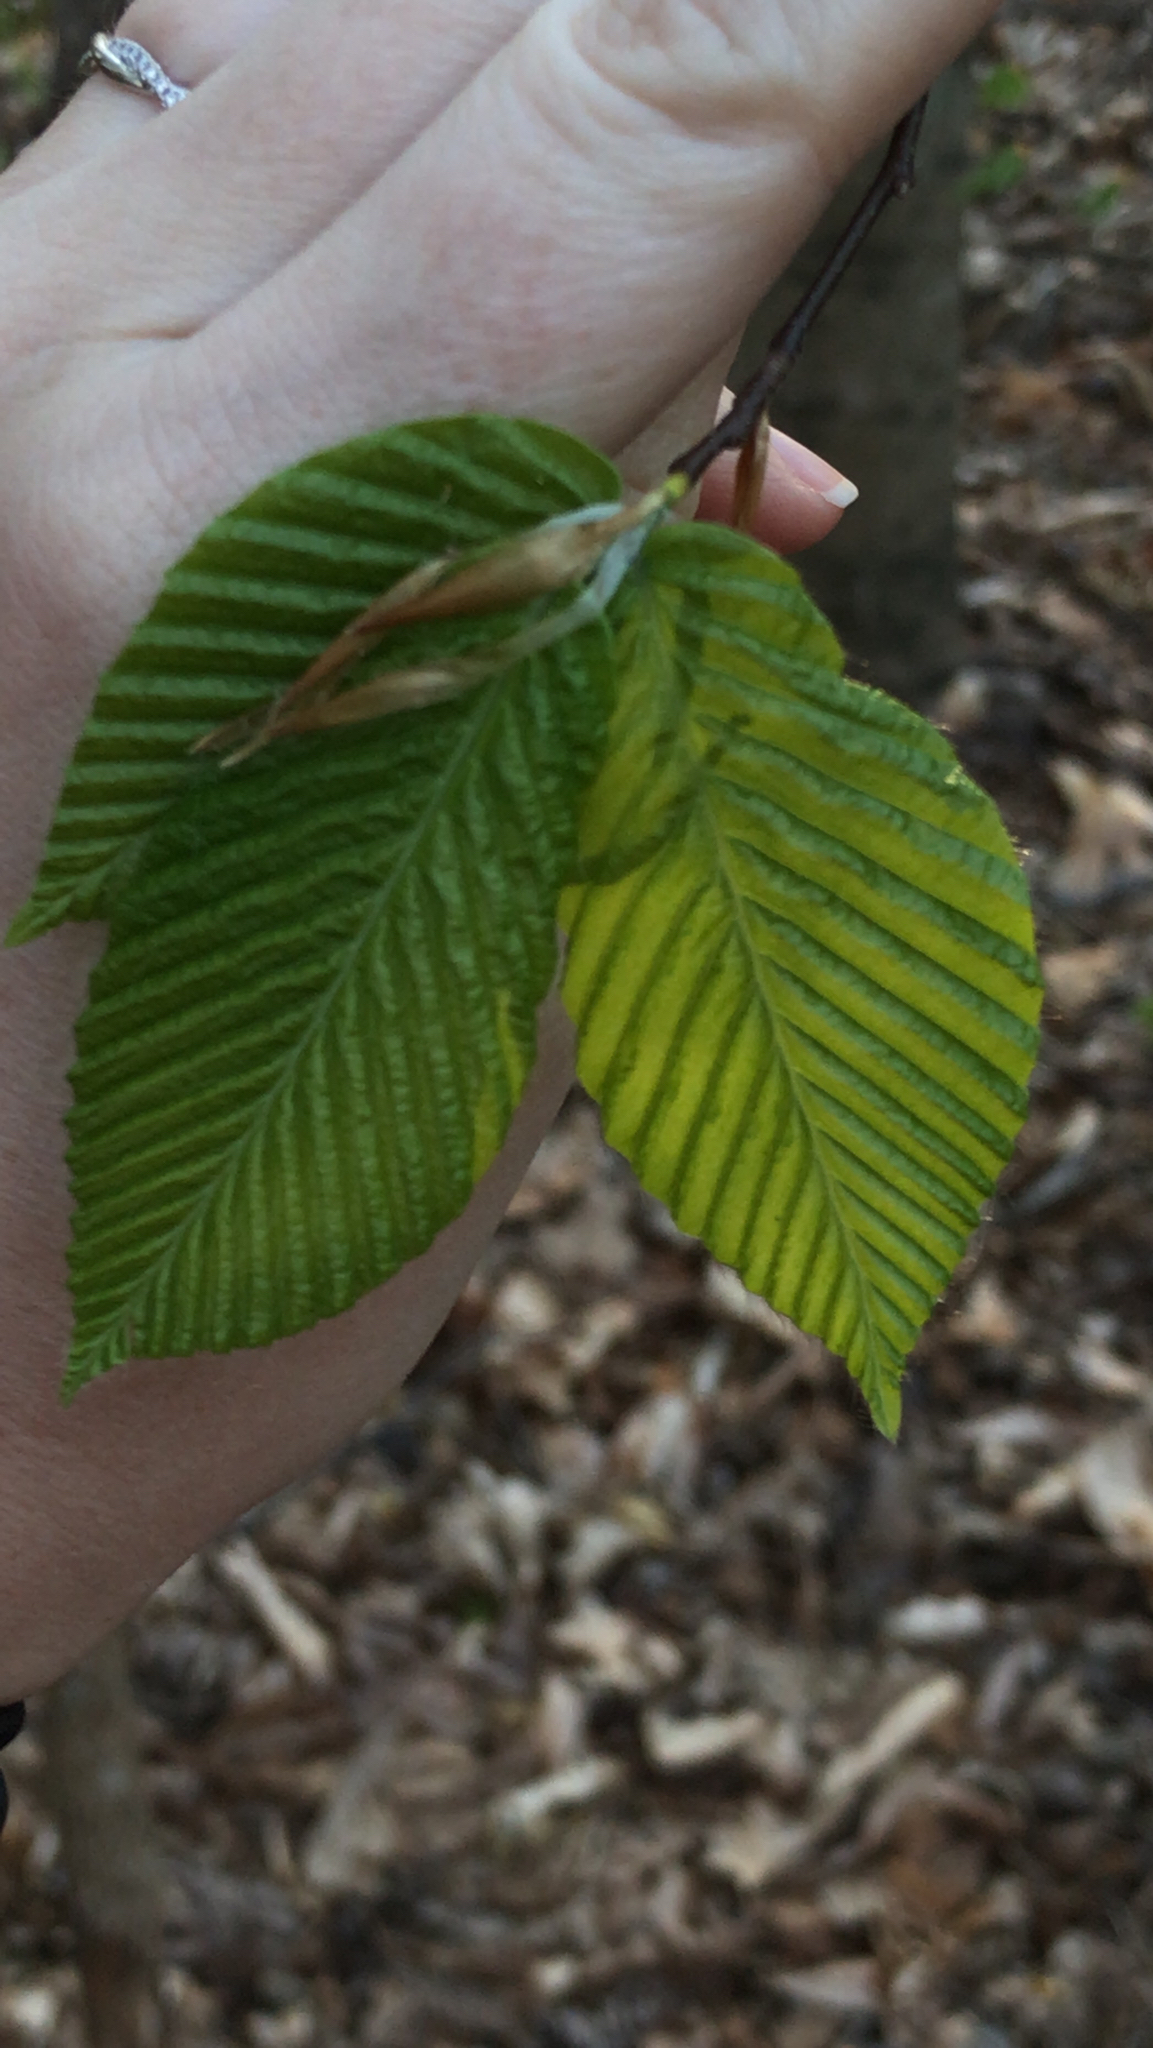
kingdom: Plantae
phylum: Tracheophyta
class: Magnoliopsida
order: Fagales
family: Fagaceae
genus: Fagus
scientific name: Fagus grandifolia
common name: American beech
